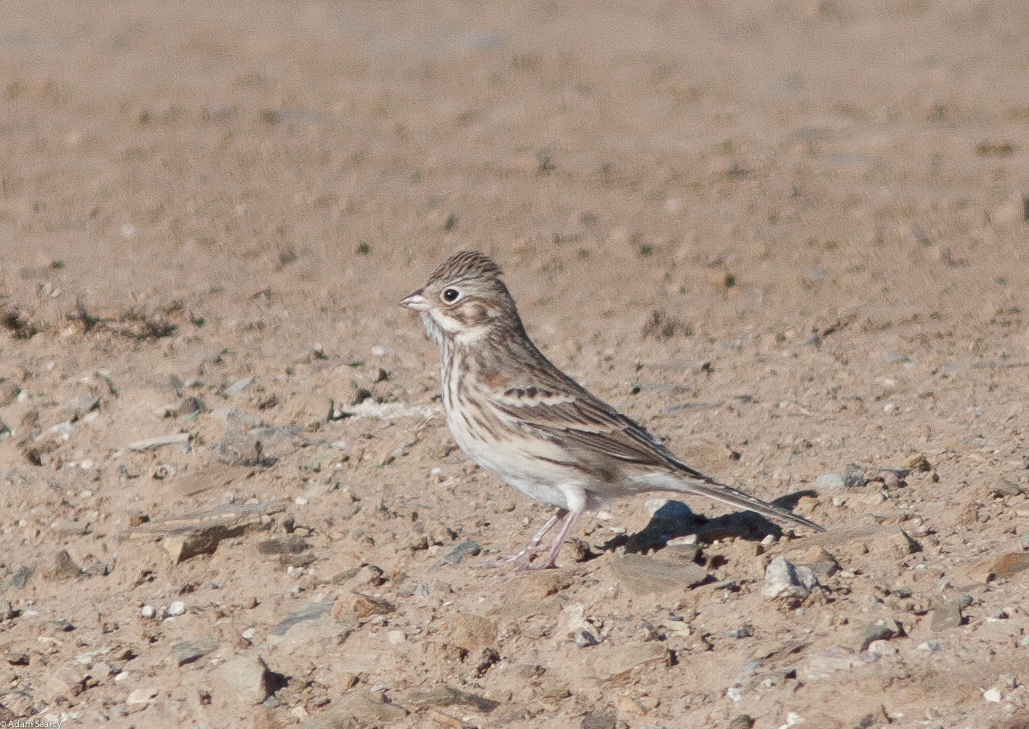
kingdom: Animalia
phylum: Chordata
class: Aves
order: Passeriformes
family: Passerellidae
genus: Pooecetes
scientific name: Pooecetes gramineus
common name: Vesper sparrow
